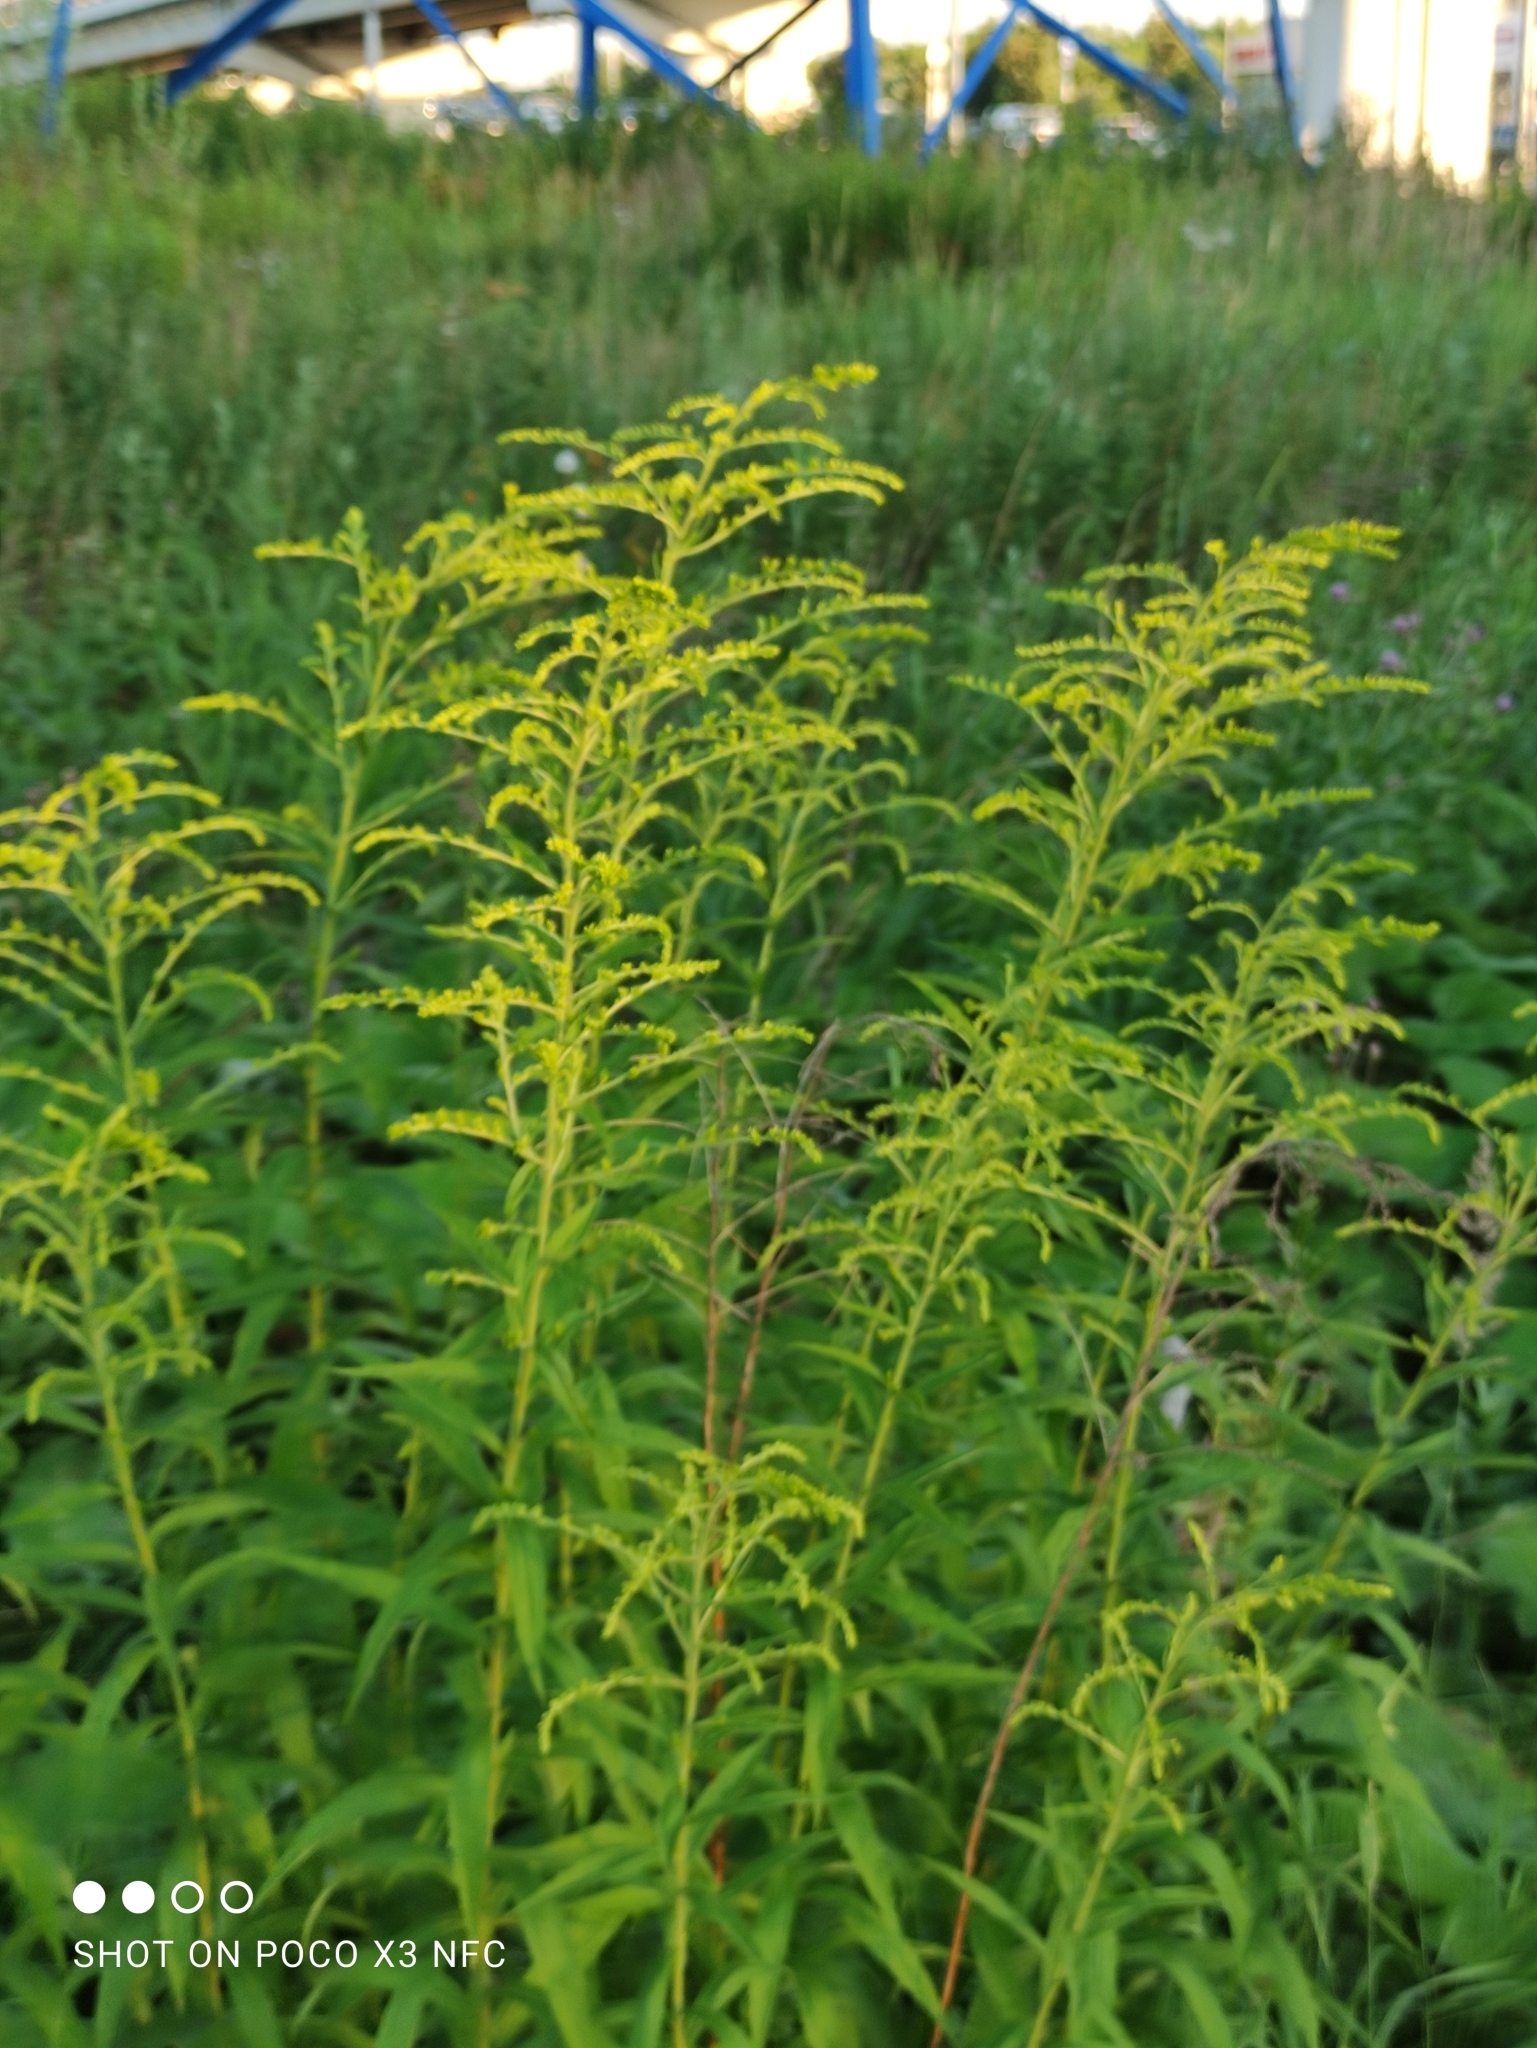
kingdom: Plantae
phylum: Tracheophyta
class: Magnoliopsida
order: Asterales
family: Asteraceae
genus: Solidago
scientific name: Solidago canadensis
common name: Canada goldenrod
